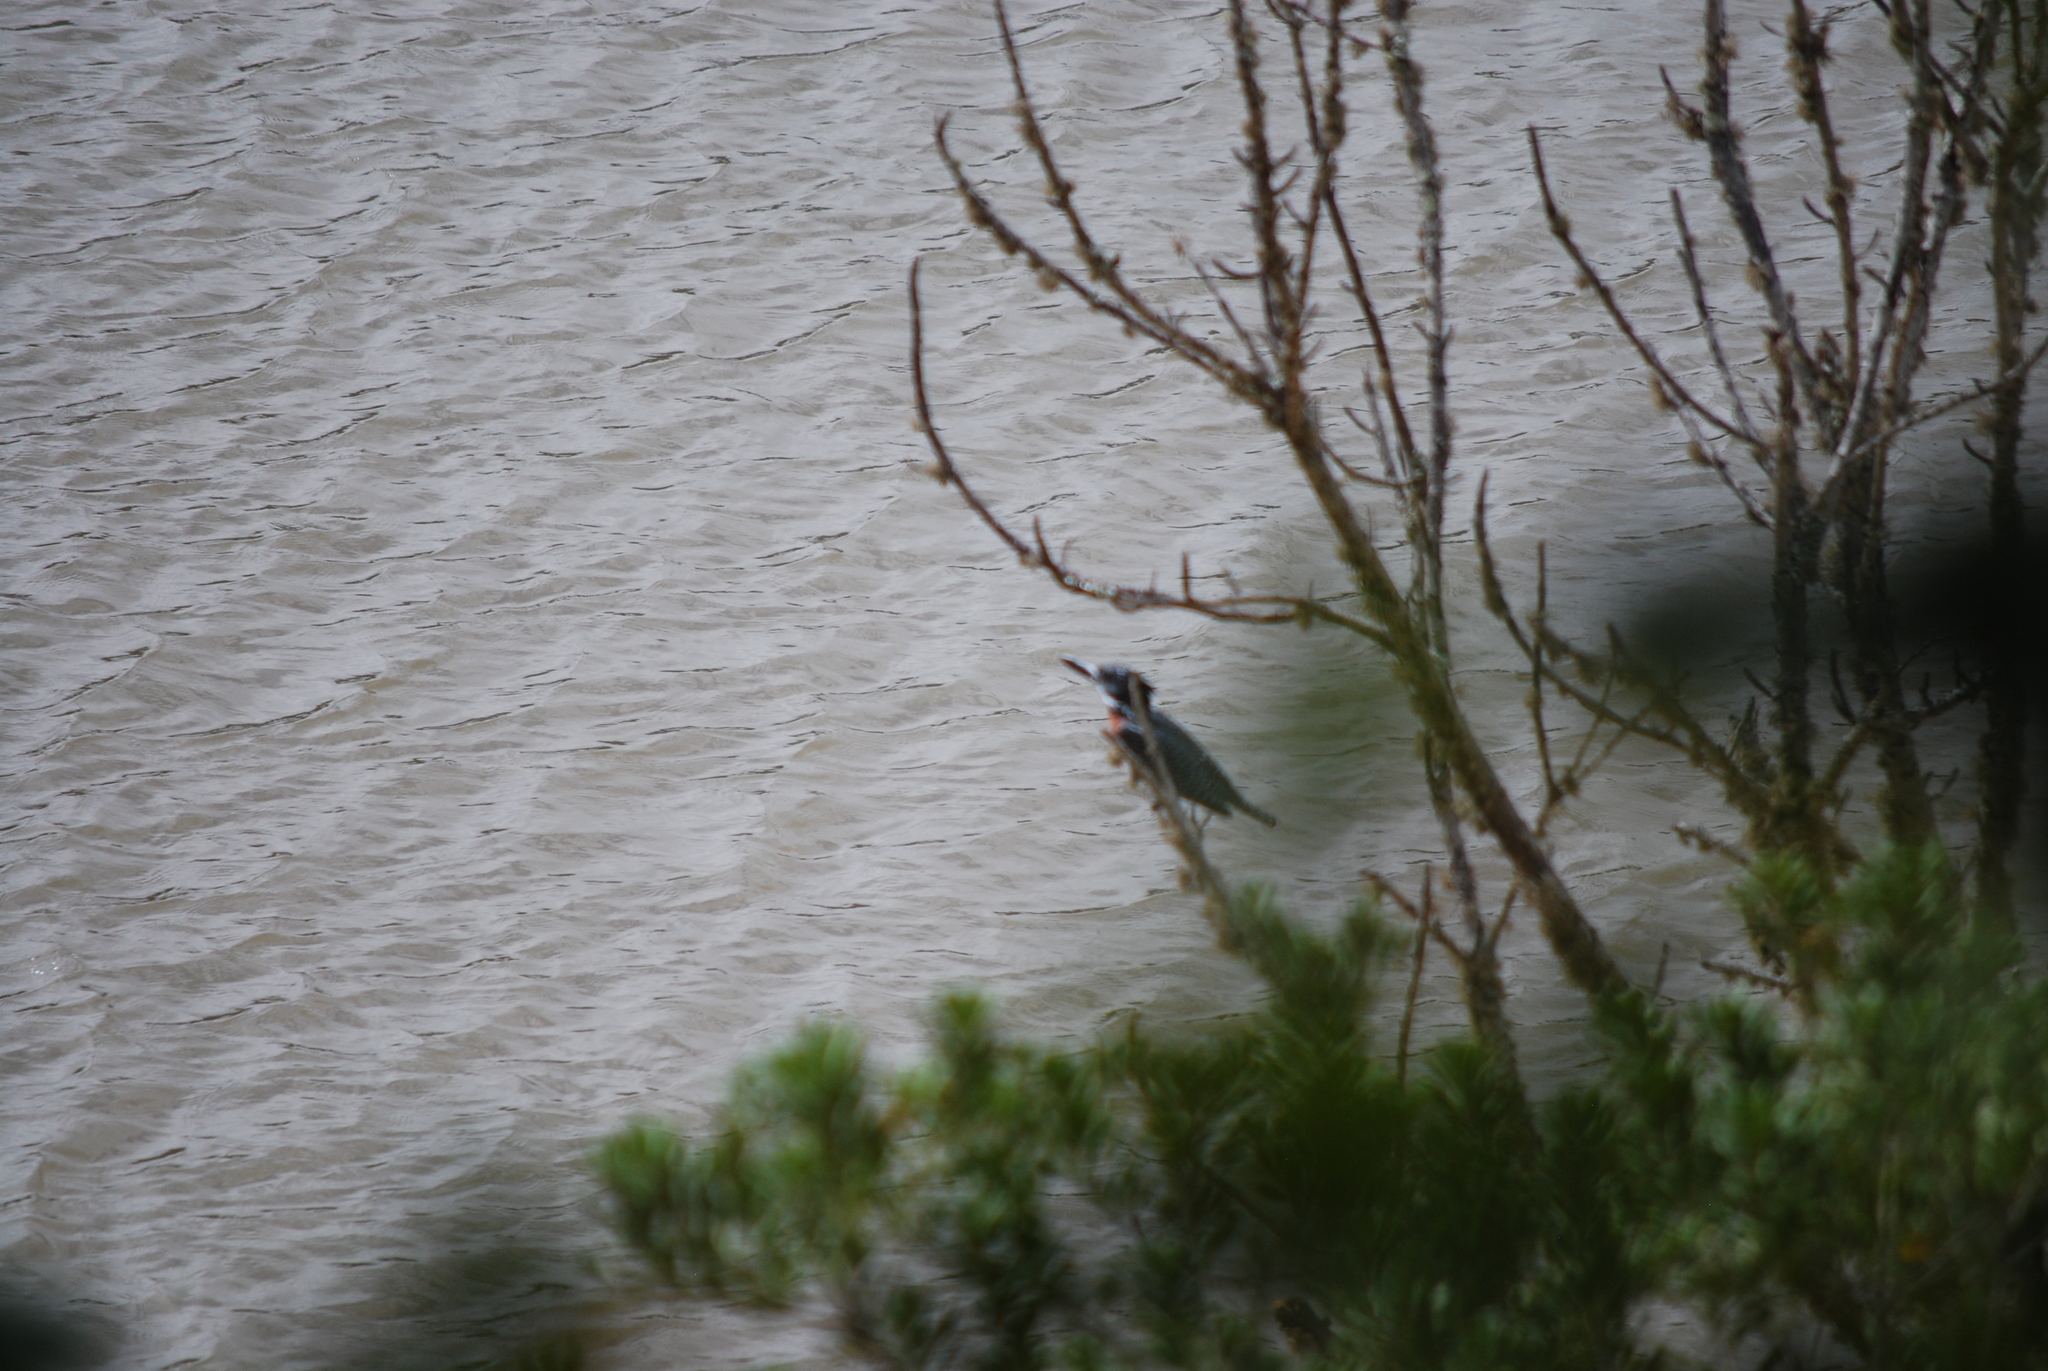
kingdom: Animalia
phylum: Chordata
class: Aves
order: Coraciiformes
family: Alcedinidae
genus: Megaceryle
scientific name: Megaceryle maxima
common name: Giant kingfisher
